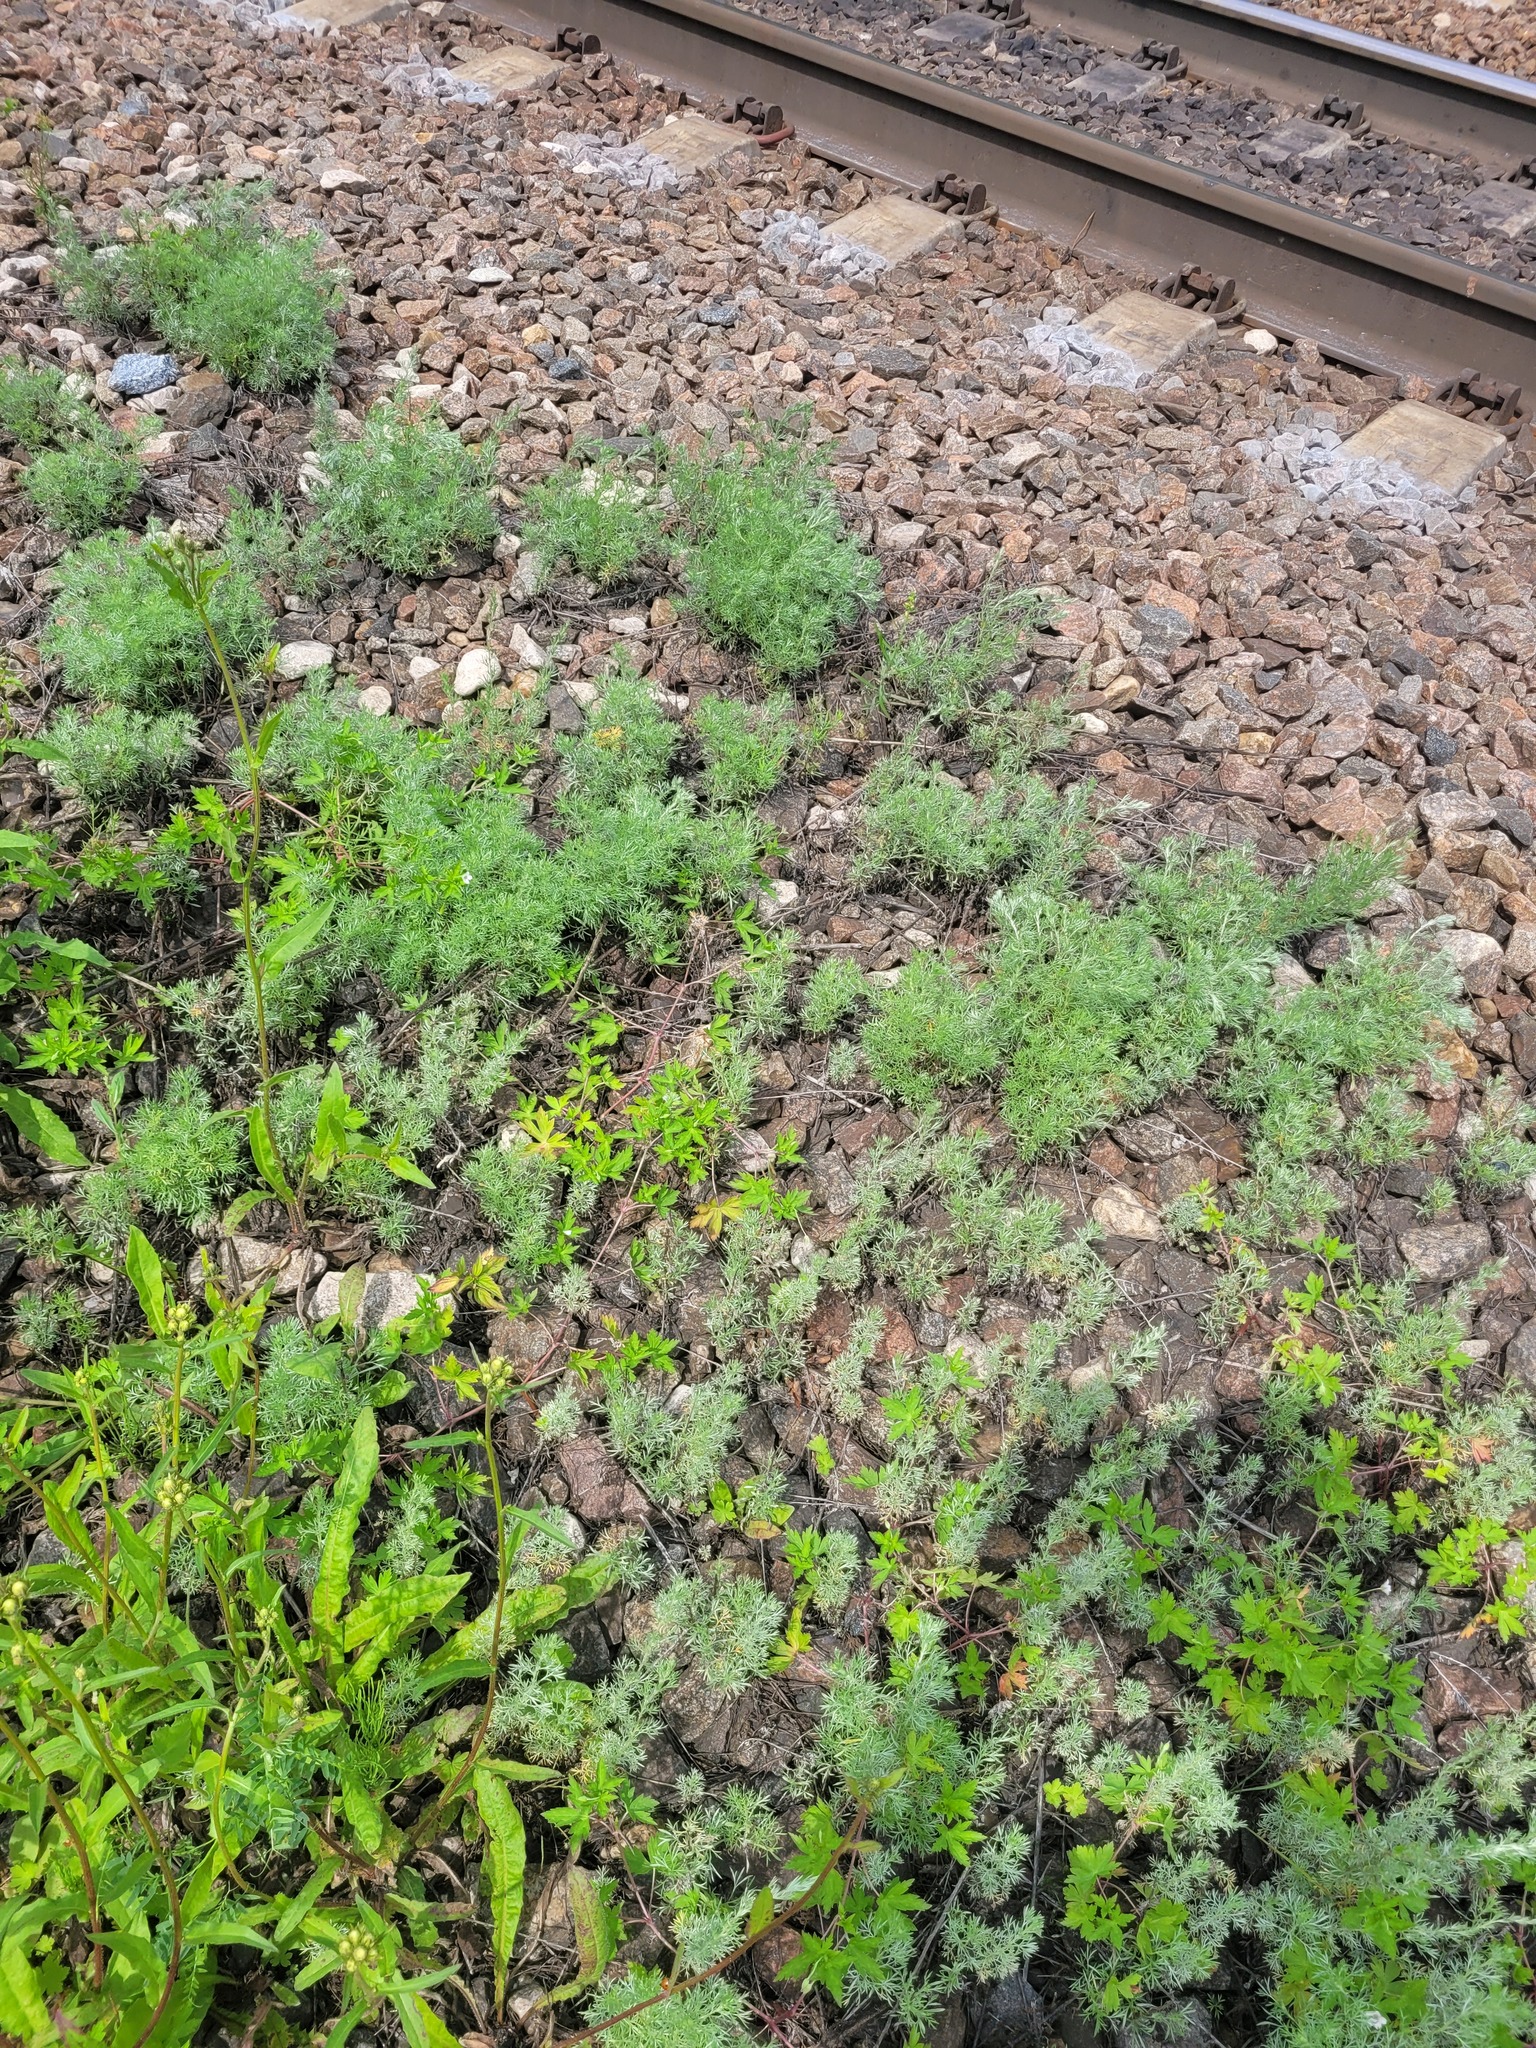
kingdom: Plantae
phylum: Tracheophyta
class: Magnoliopsida
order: Asterales
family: Asteraceae
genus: Artemisia
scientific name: Artemisia austriaca
